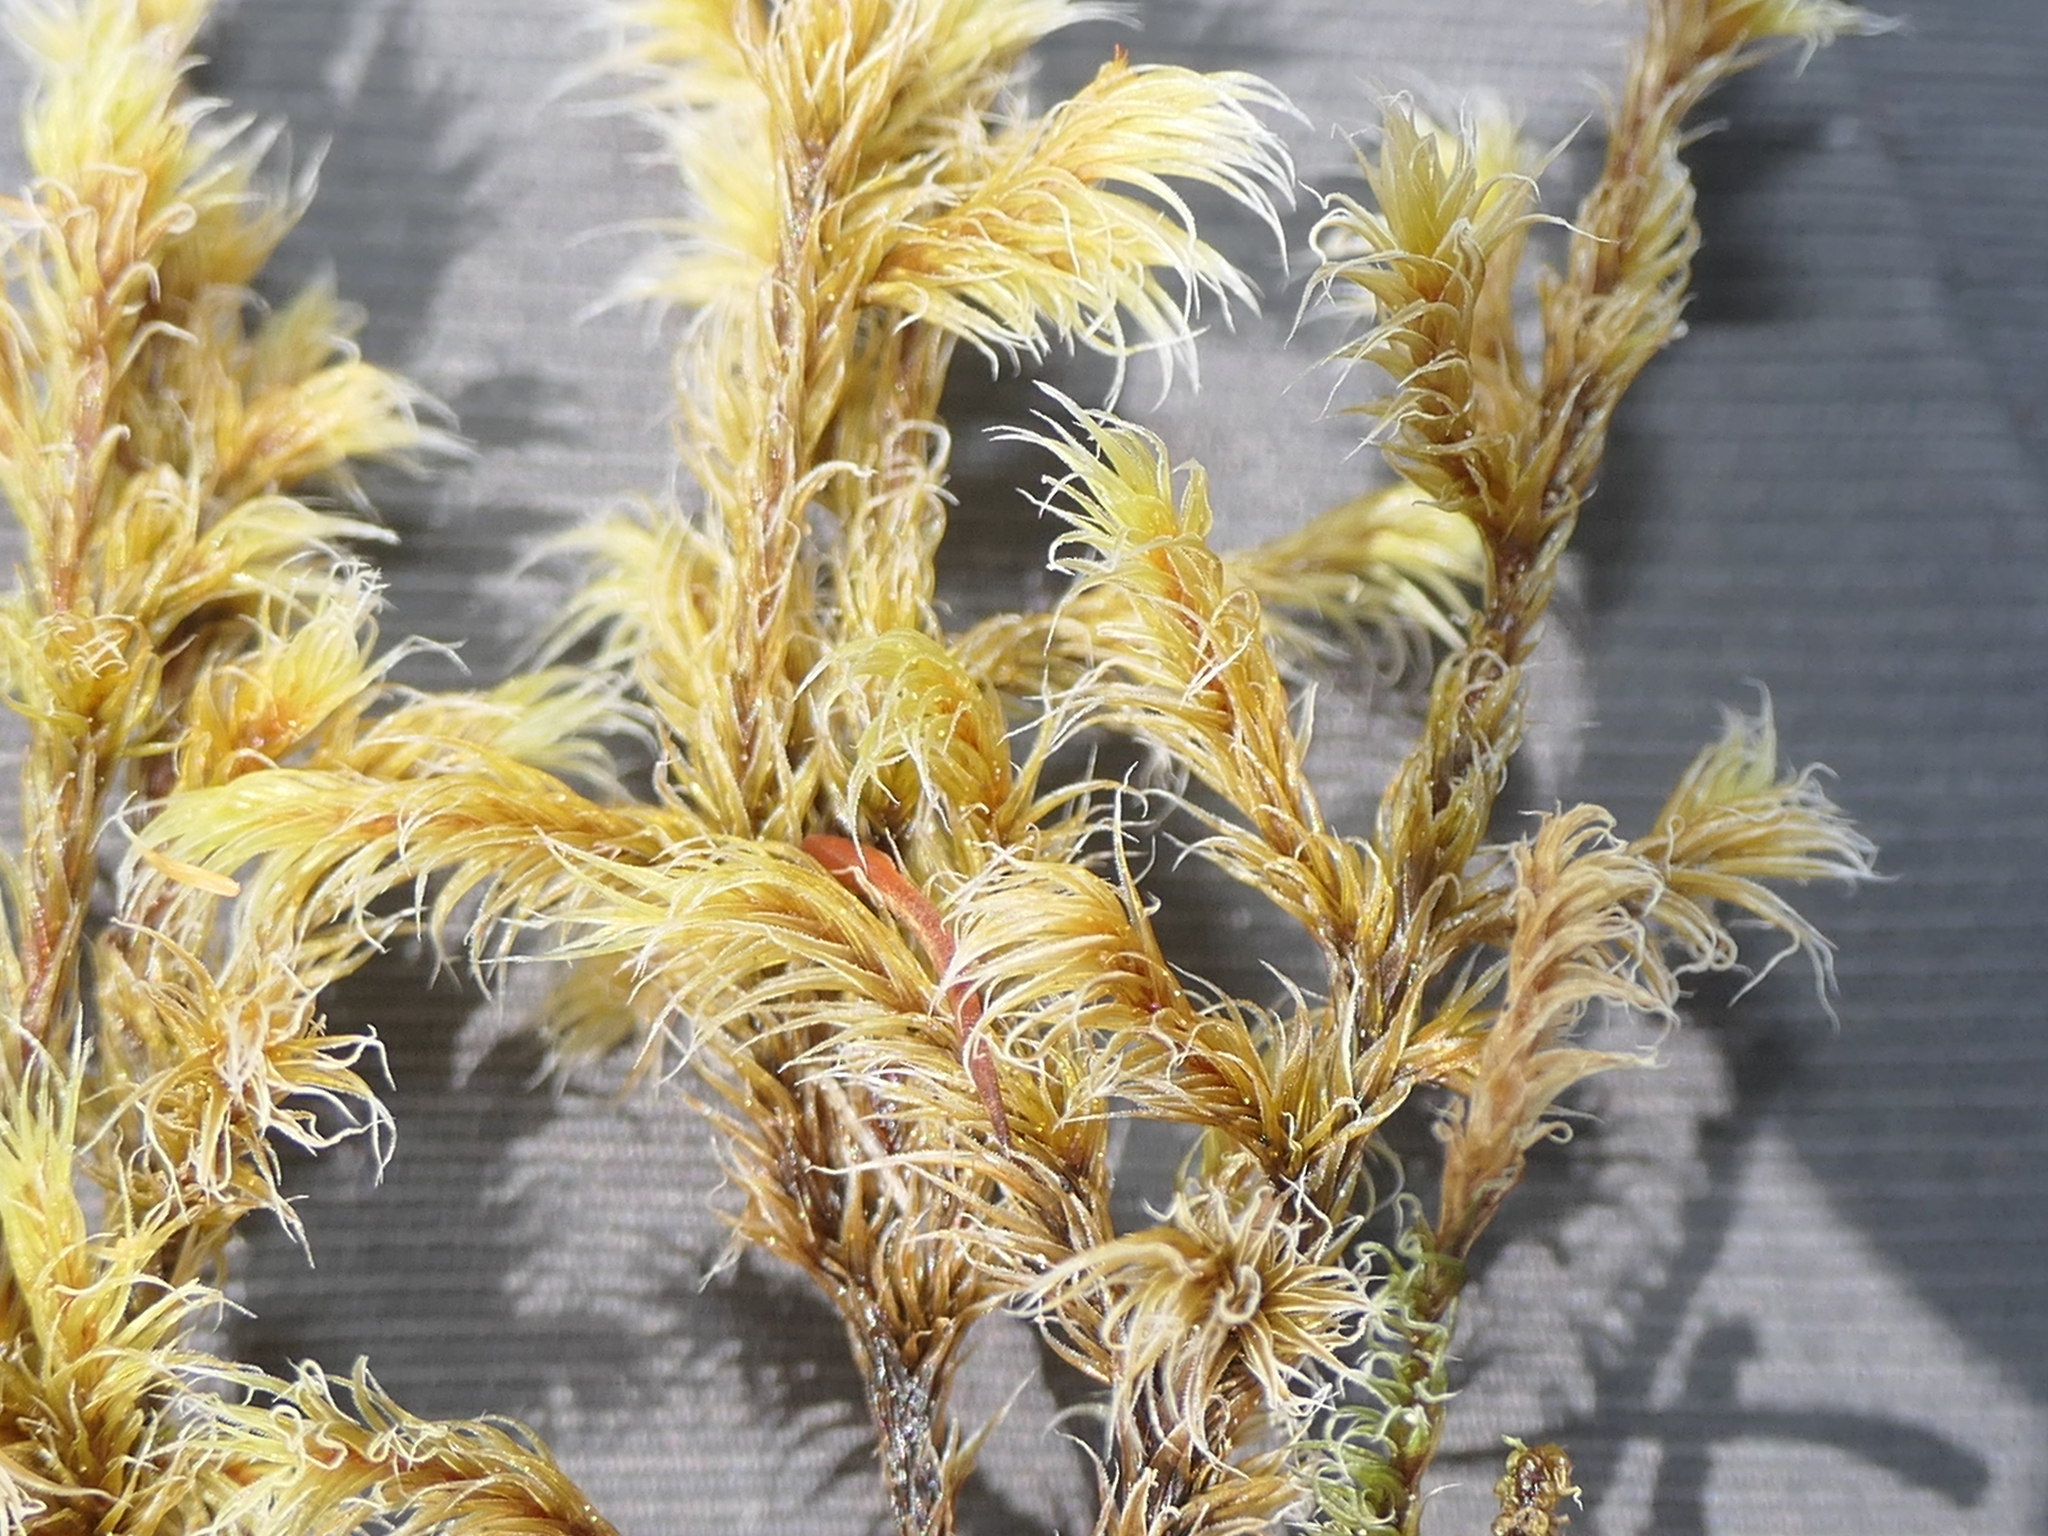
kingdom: Plantae
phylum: Bryophyta
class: Bryopsida
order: Grimmiales
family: Grimmiaceae
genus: Racomitrium
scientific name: Racomitrium lanuginosum
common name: Hoary rock moss
